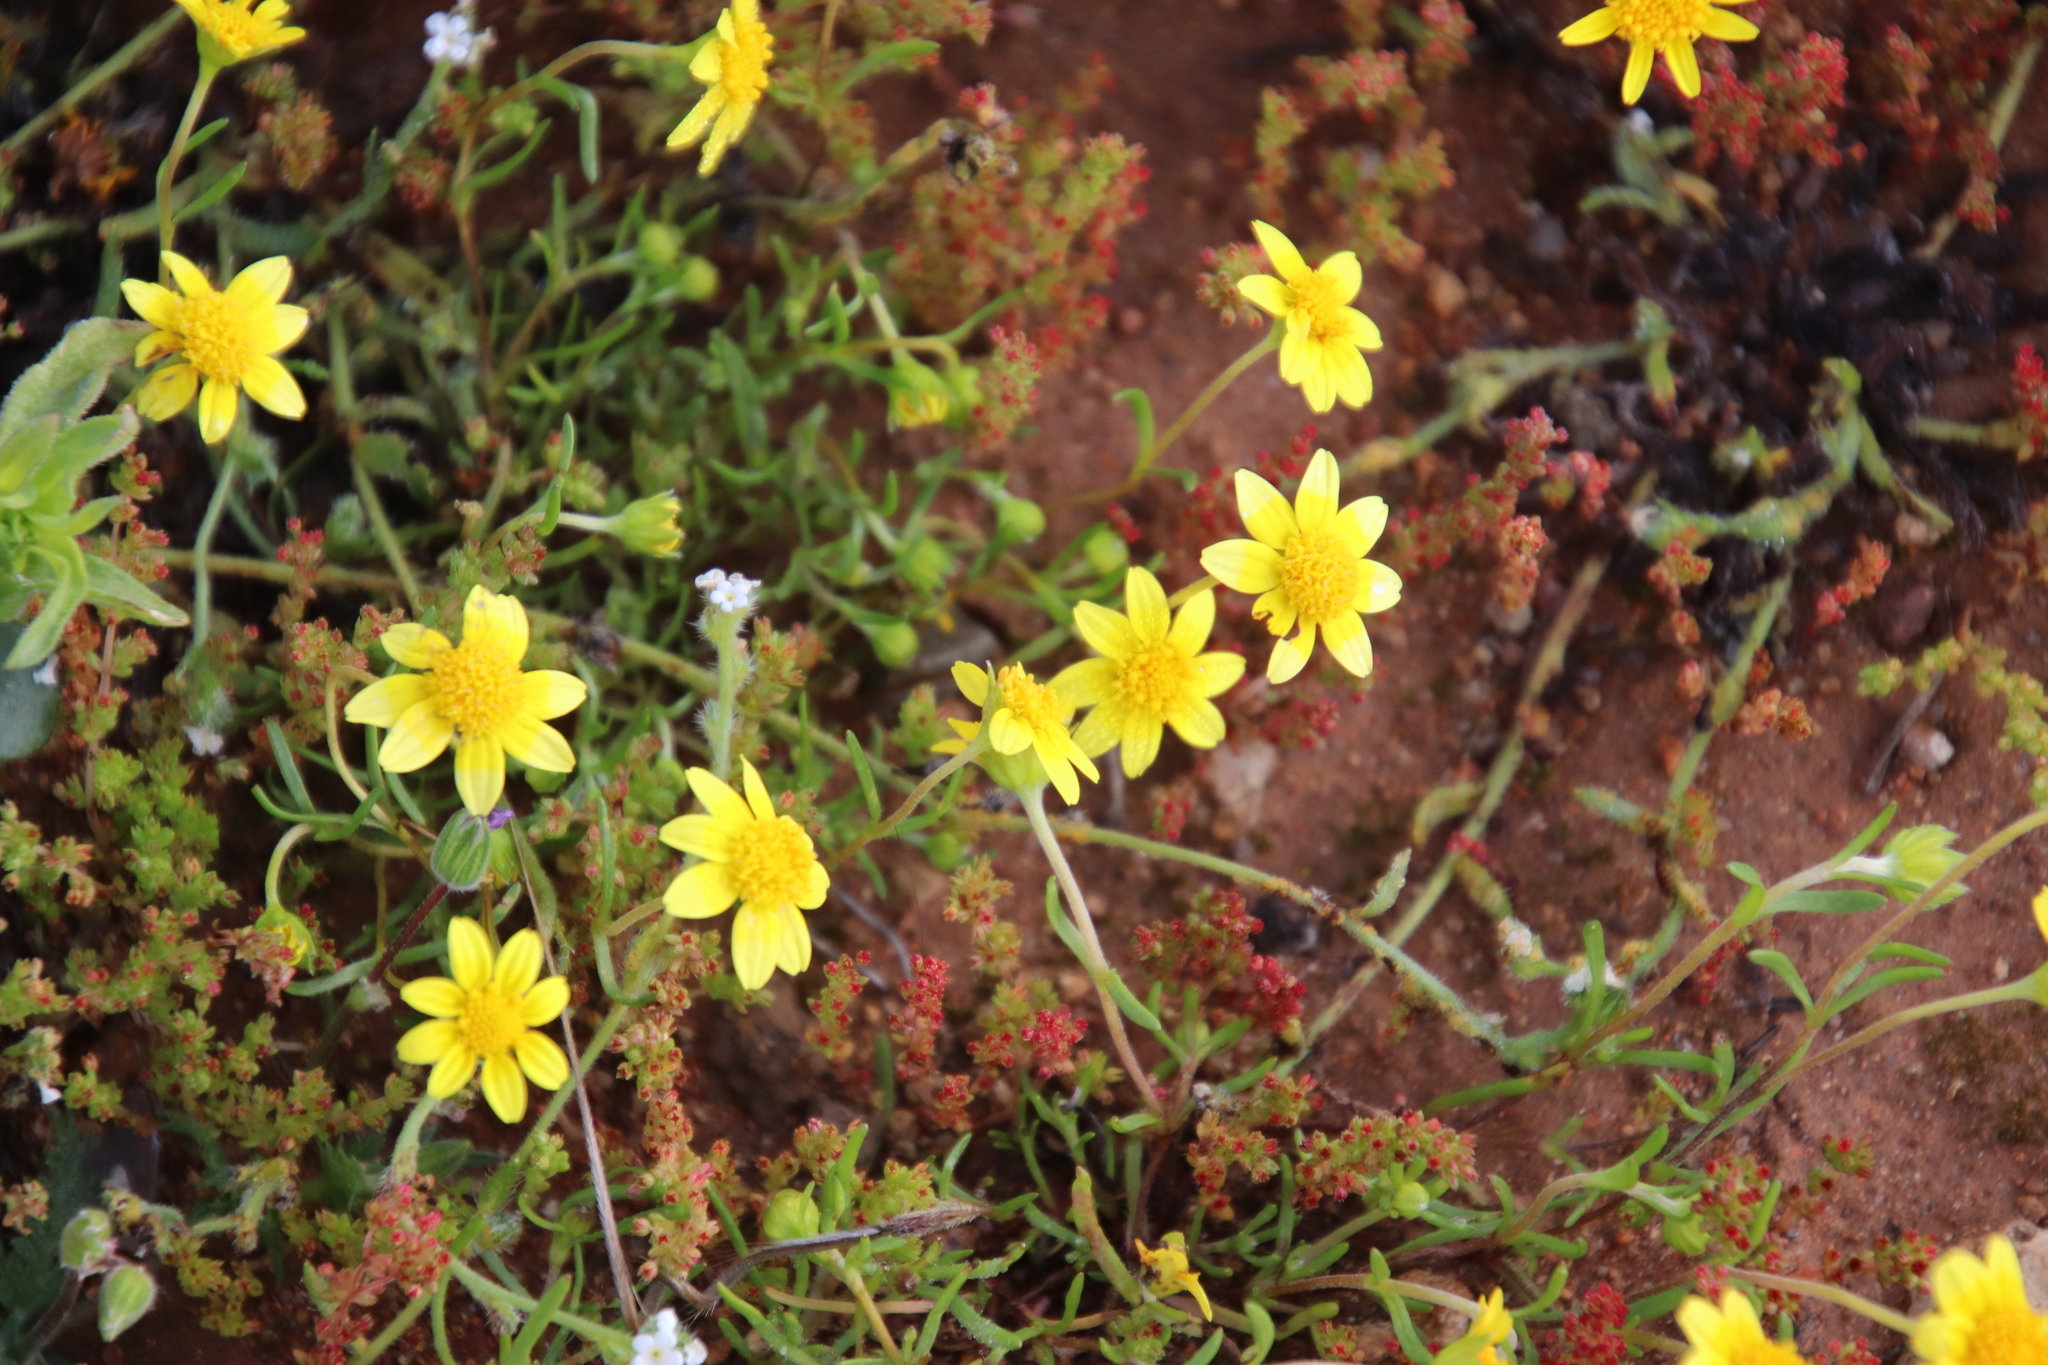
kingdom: Plantae
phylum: Tracheophyta
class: Magnoliopsida
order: Asterales
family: Asteraceae
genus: Lasthenia
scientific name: Lasthenia gracilis
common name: Common goldfields
